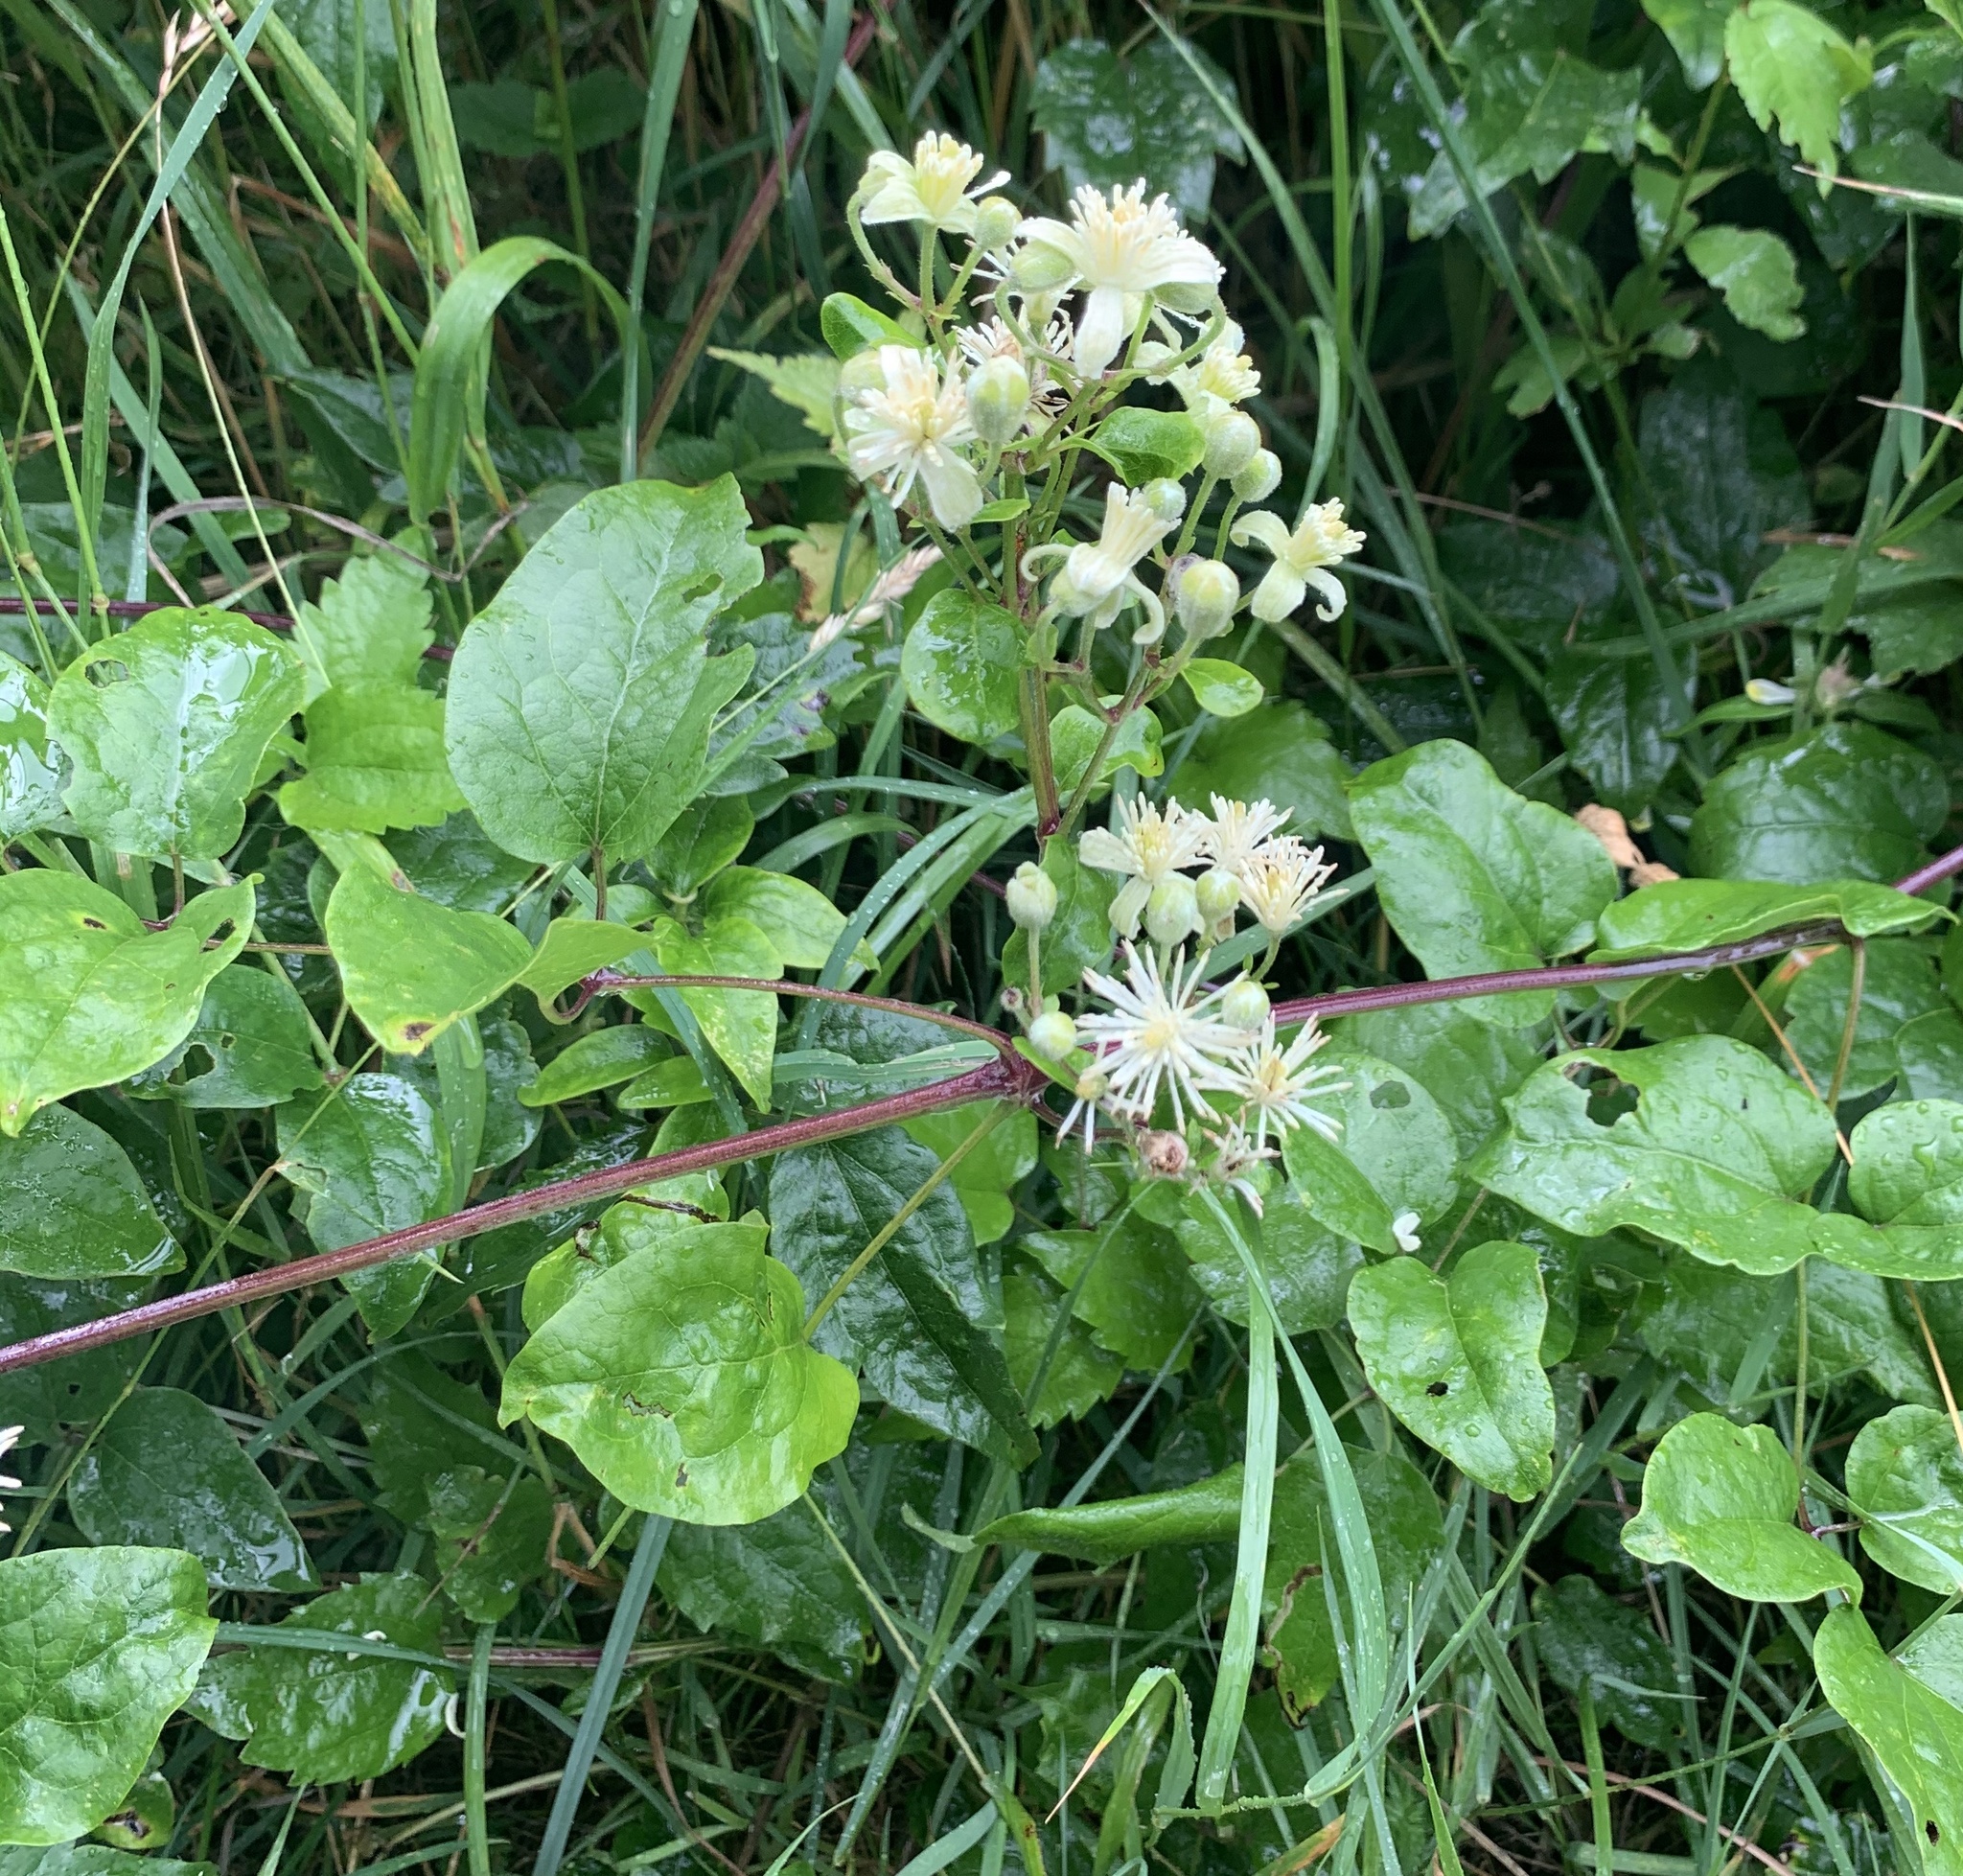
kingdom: Plantae
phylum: Tracheophyta
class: Magnoliopsida
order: Ranunculales
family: Ranunculaceae
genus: Clematis
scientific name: Clematis vitalba
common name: Evergreen clematis
